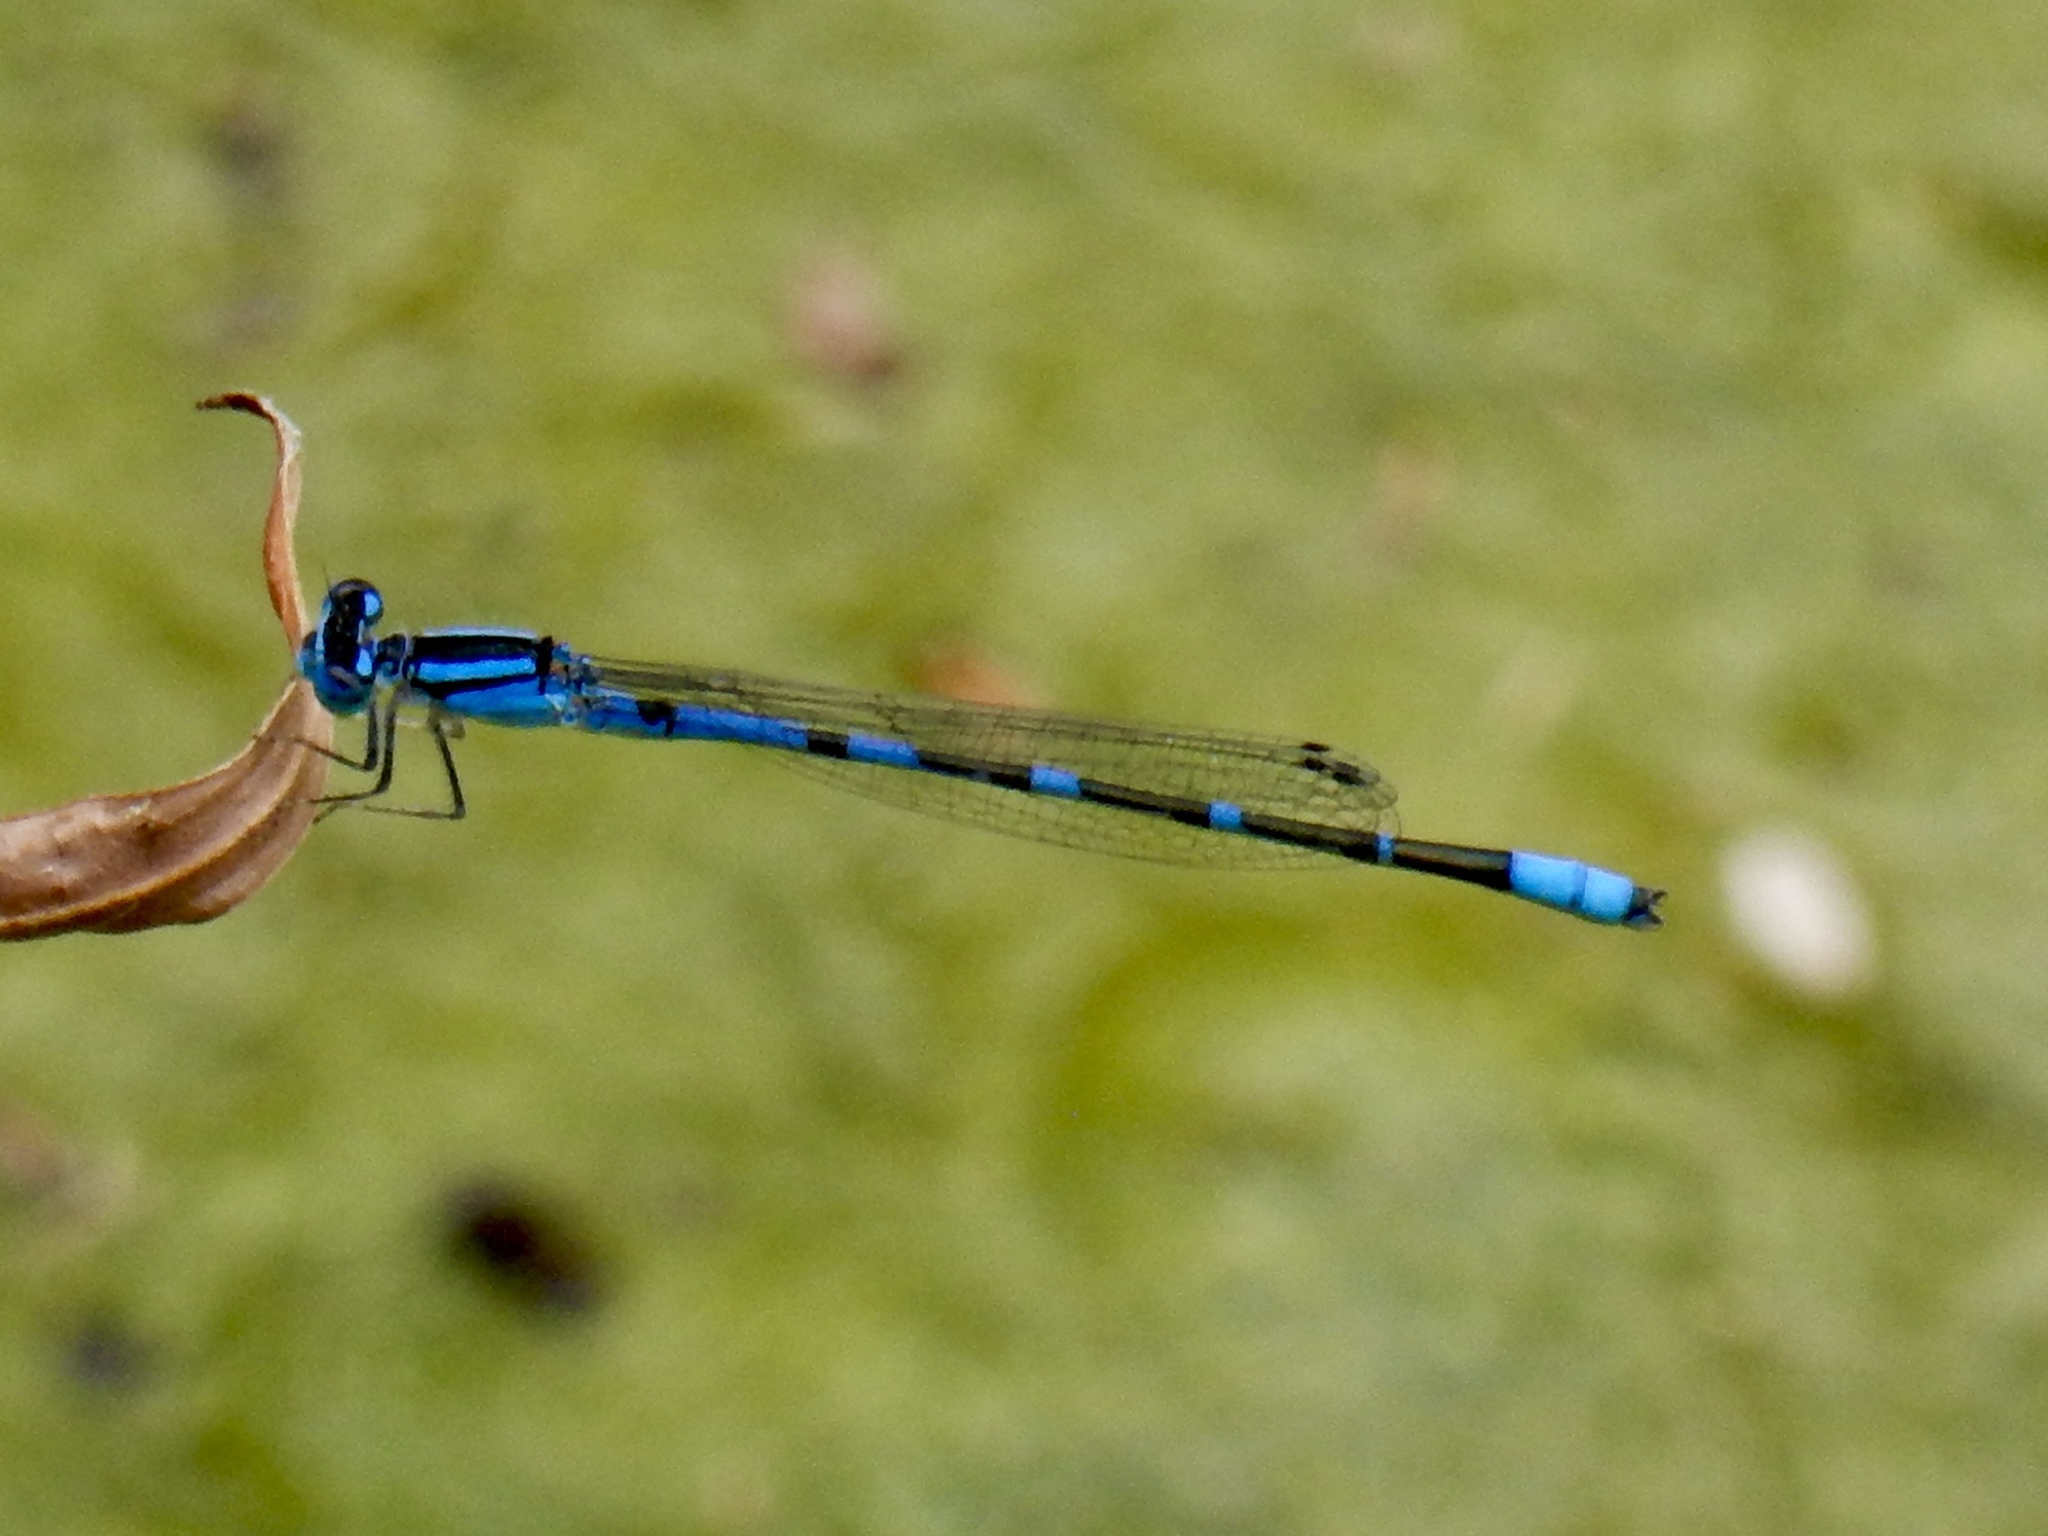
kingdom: Animalia
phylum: Arthropoda
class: Insecta
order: Odonata
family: Coenagrionidae
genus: Enallagma
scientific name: Enallagma praevarum
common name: Arroyo bluet
